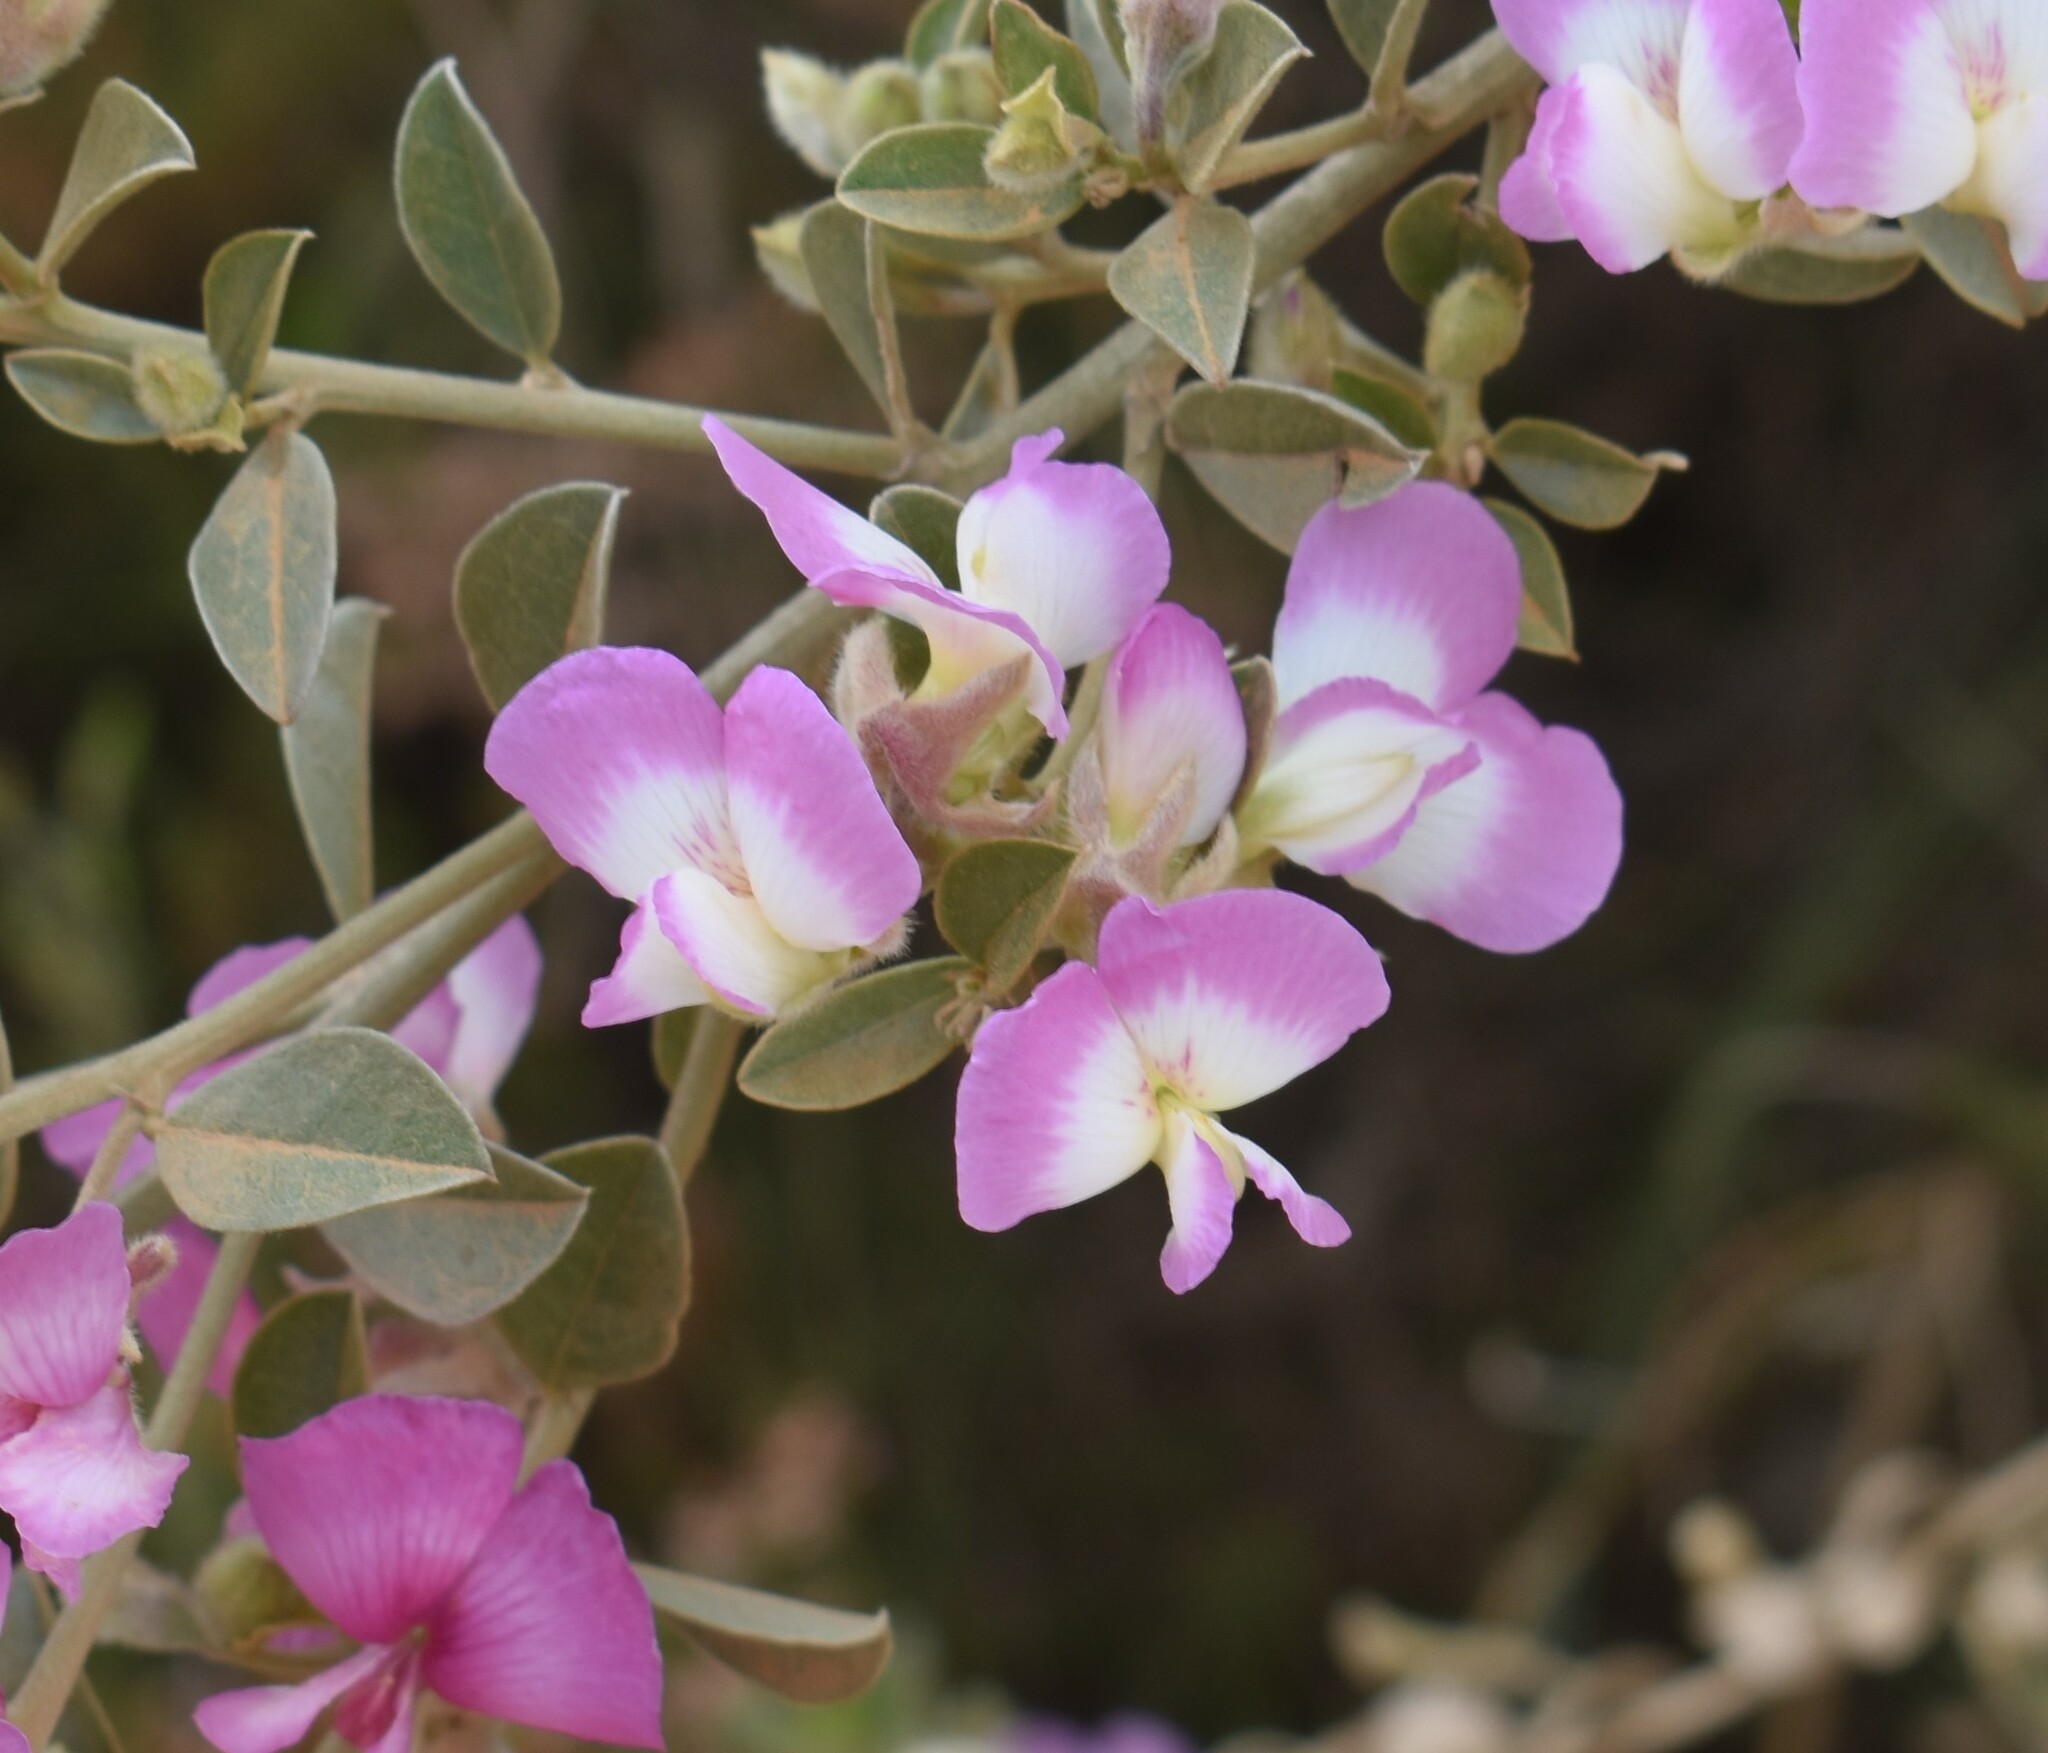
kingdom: Plantae
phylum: Tracheophyta
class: Magnoliopsida
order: Fabales
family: Fabaceae
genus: Podalyria
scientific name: Podalyria variabilis
